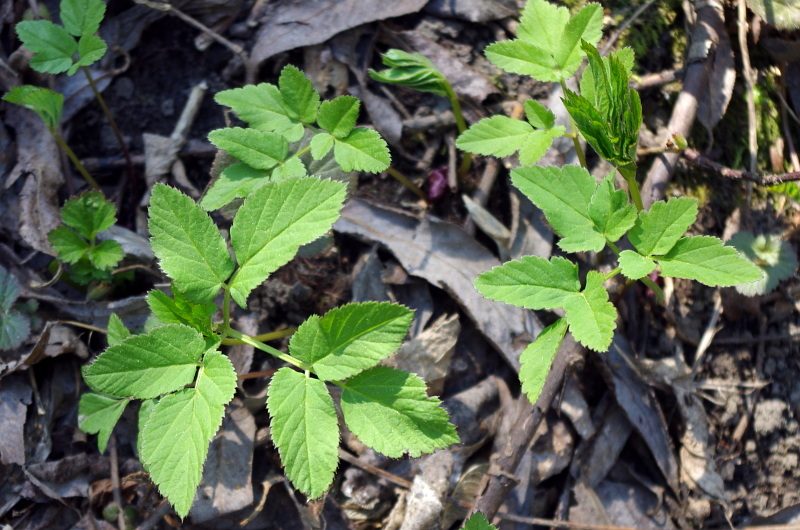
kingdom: Plantae
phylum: Tracheophyta
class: Magnoliopsida
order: Apiales
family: Apiaceae
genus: Aegopodium
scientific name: Aegopodium podagraria
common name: Ground-elder
